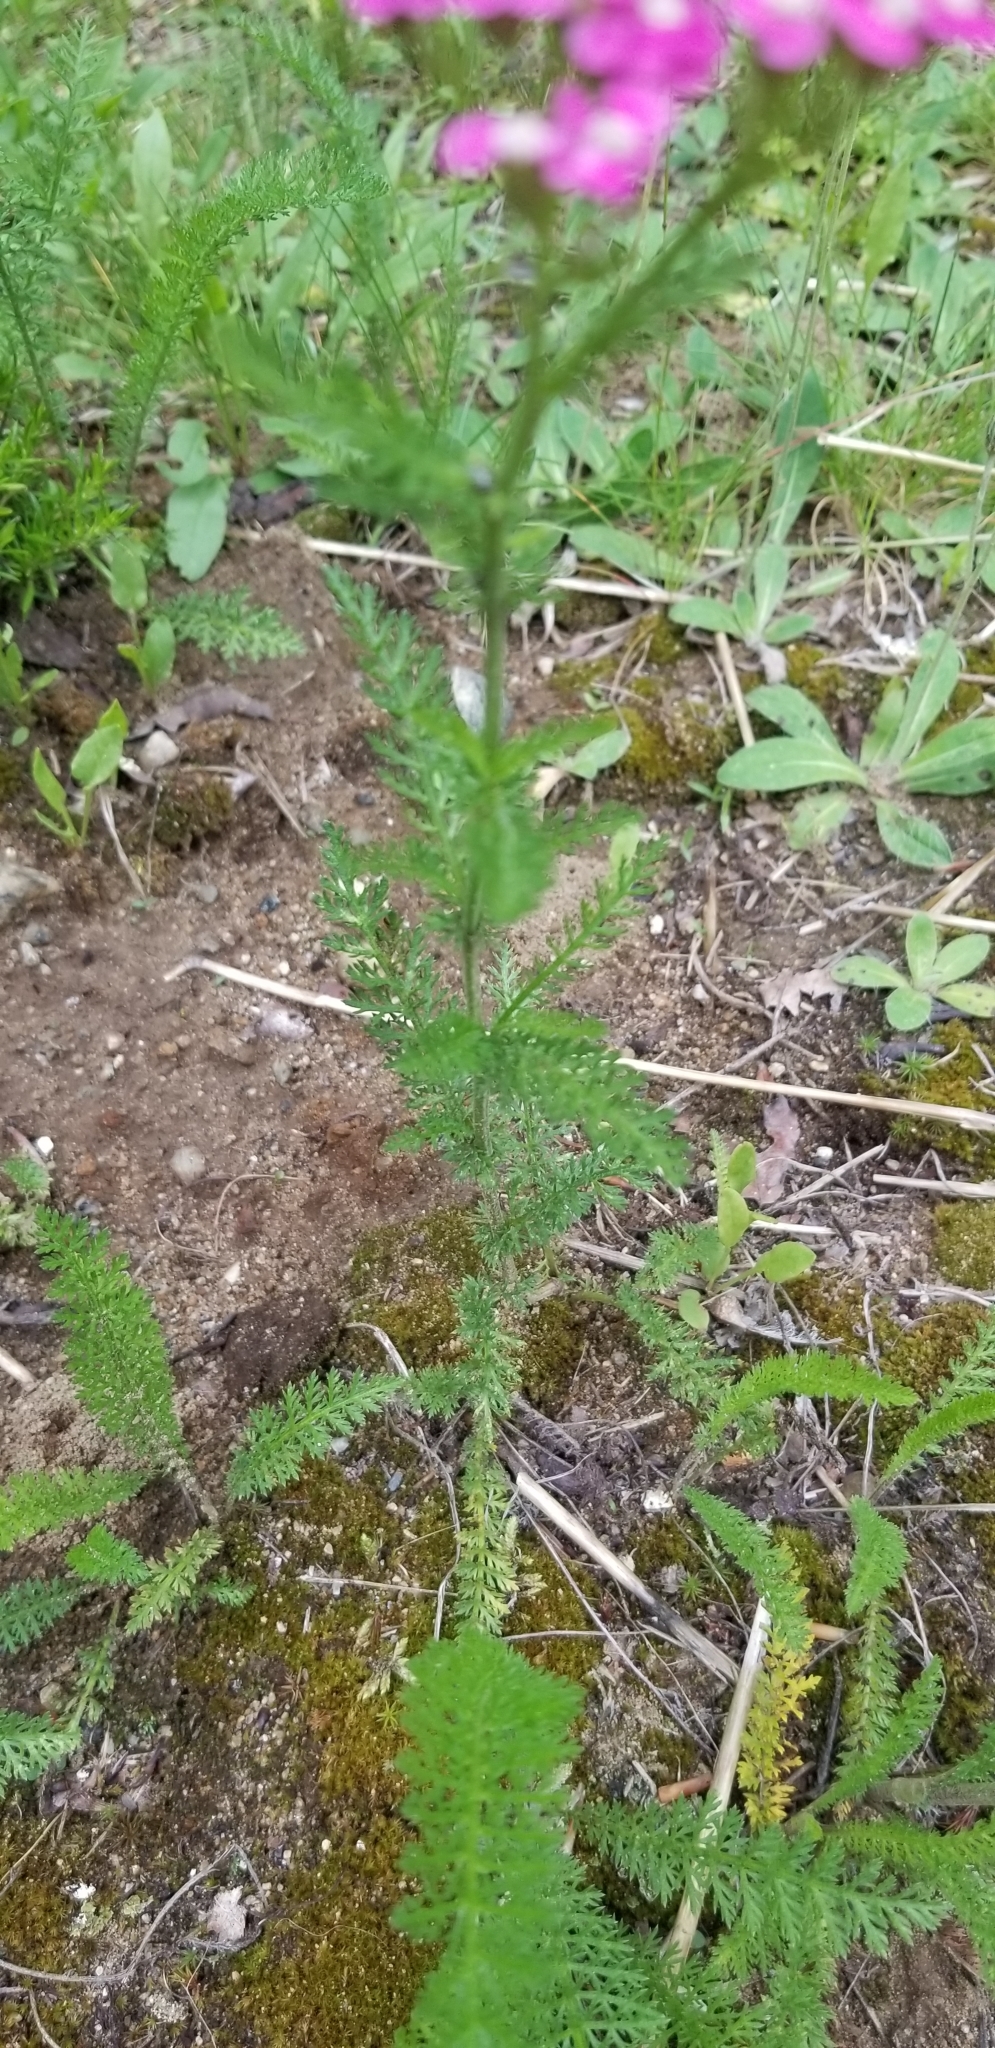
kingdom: Plantae
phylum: Tracheophyta
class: Magnoliopsida
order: Asterales
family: Asteraceae
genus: Achillea
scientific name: Achillea millefolium
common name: Yarrow
